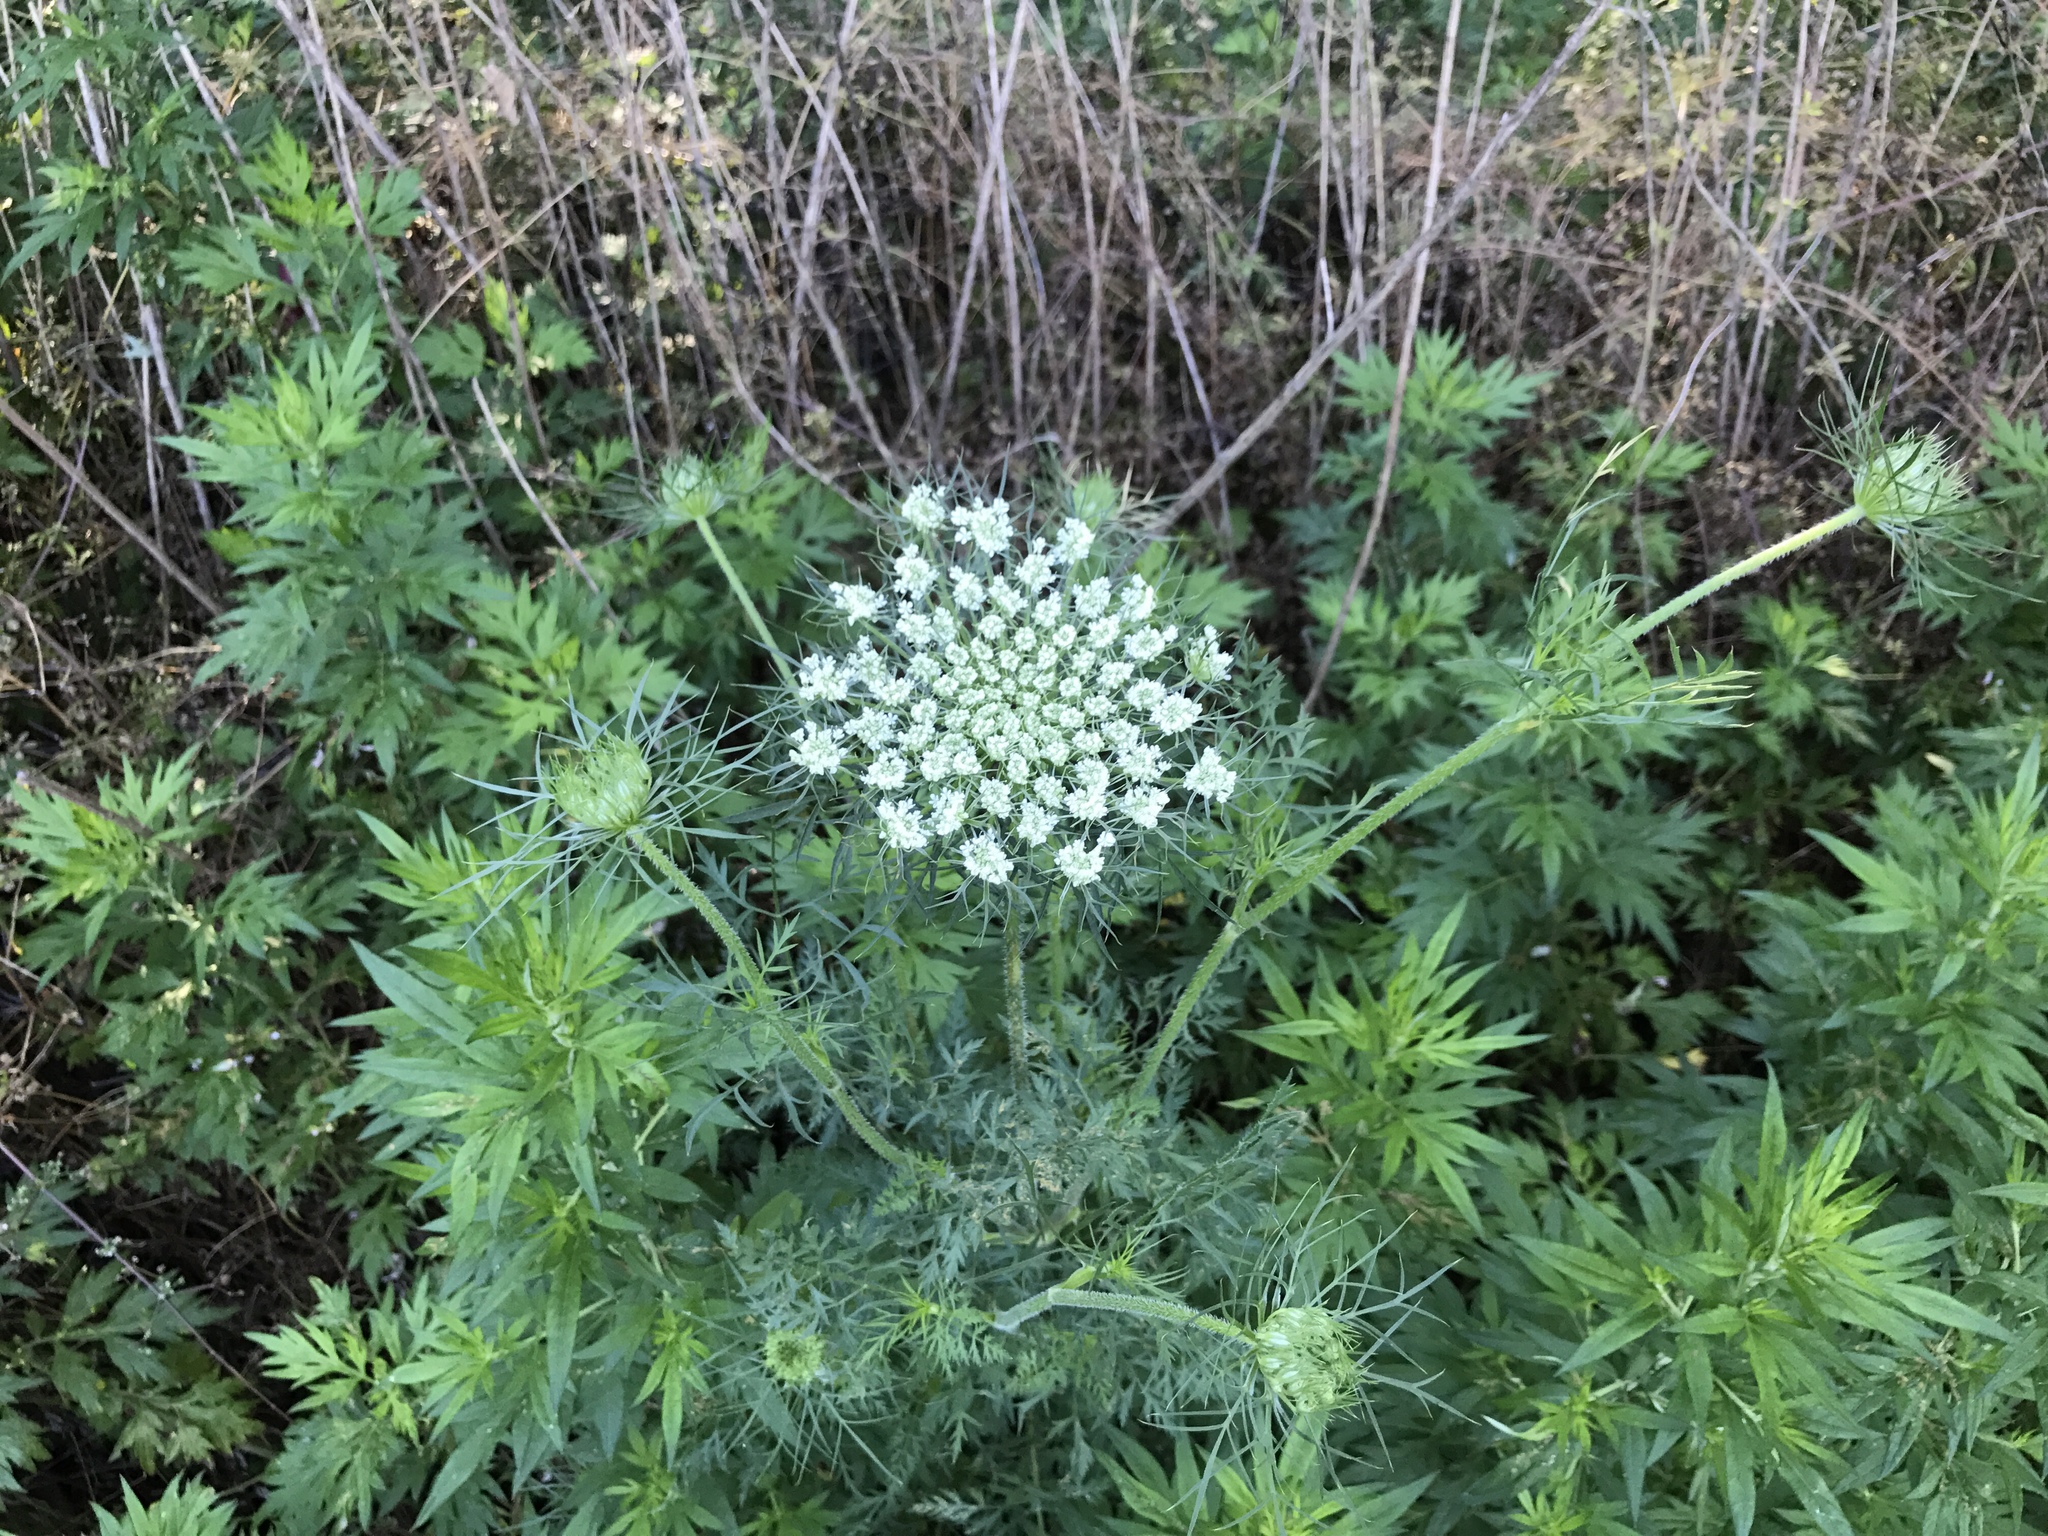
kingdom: Plantae
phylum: Tracheophyta
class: Magnoliopsida
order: Apiales
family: Apiaceae
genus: Daucus
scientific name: Daucus carota
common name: Wild carrot
